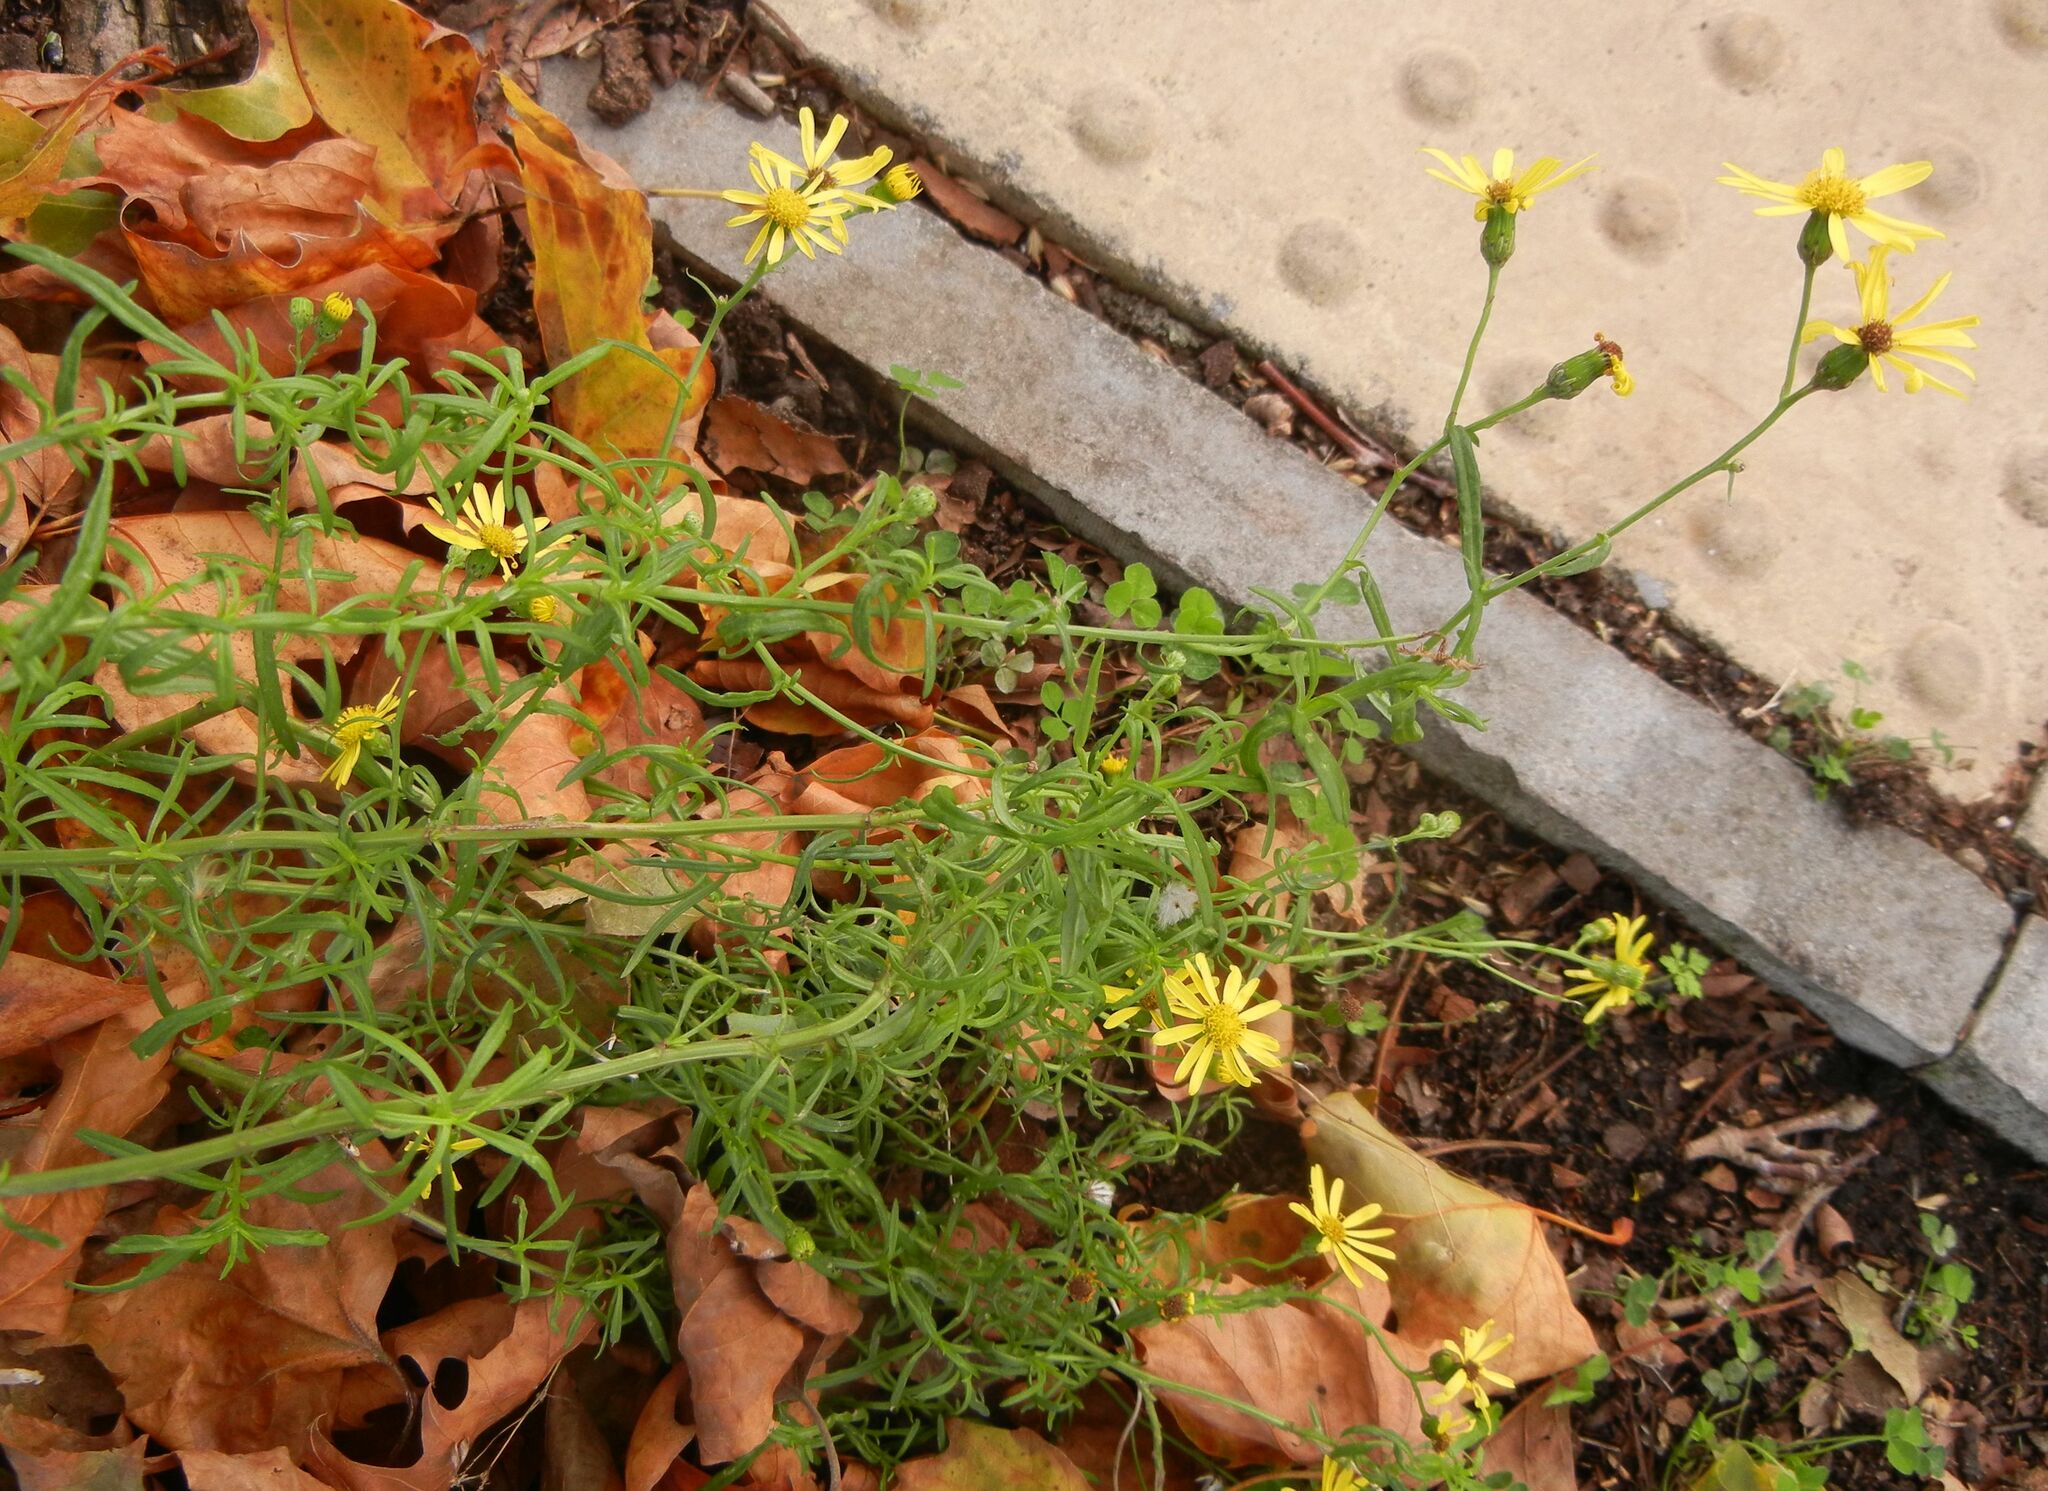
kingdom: Plantae
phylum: Tracheophyta
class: Magnoliopsida
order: Asterales
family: Asteraceae
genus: Senecio
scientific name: Senecio inaequidens
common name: Narrow-leaved ragwort
